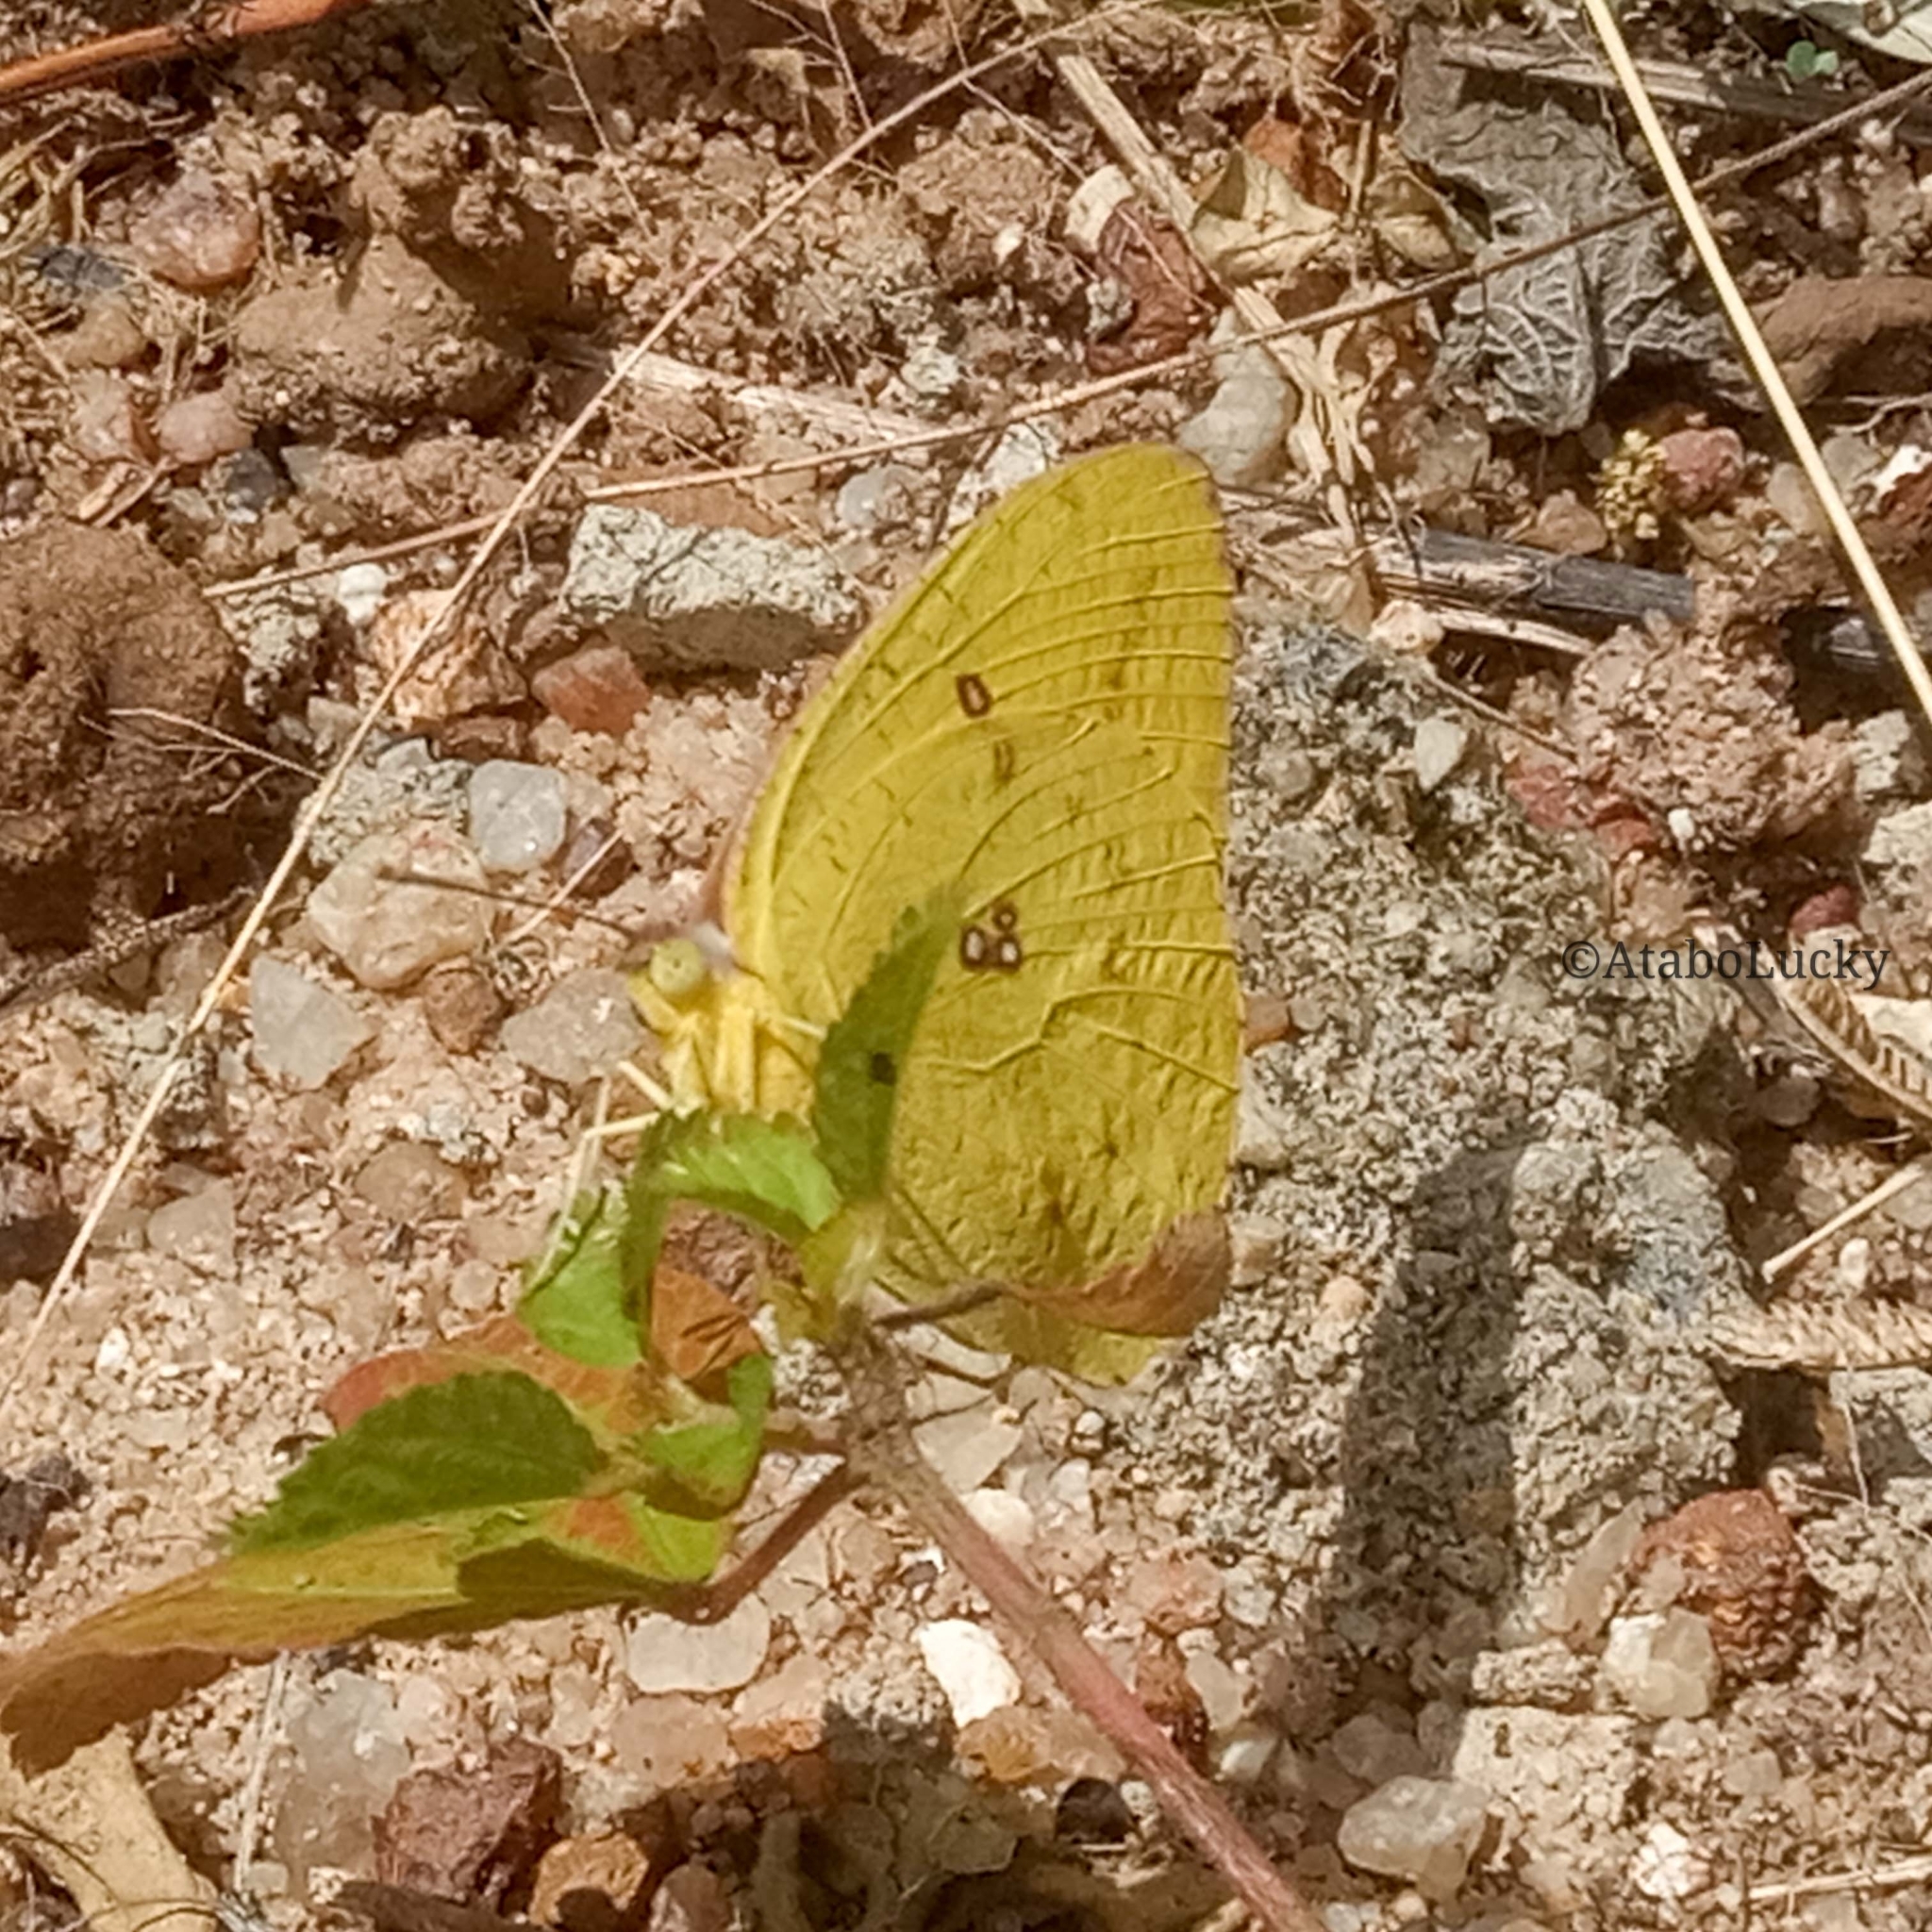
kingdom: Animalia
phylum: Arthropoda
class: Insecta
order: Lepidoptera
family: Pieridae
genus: Catopsilia
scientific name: Catopsilia florella
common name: African migrant
